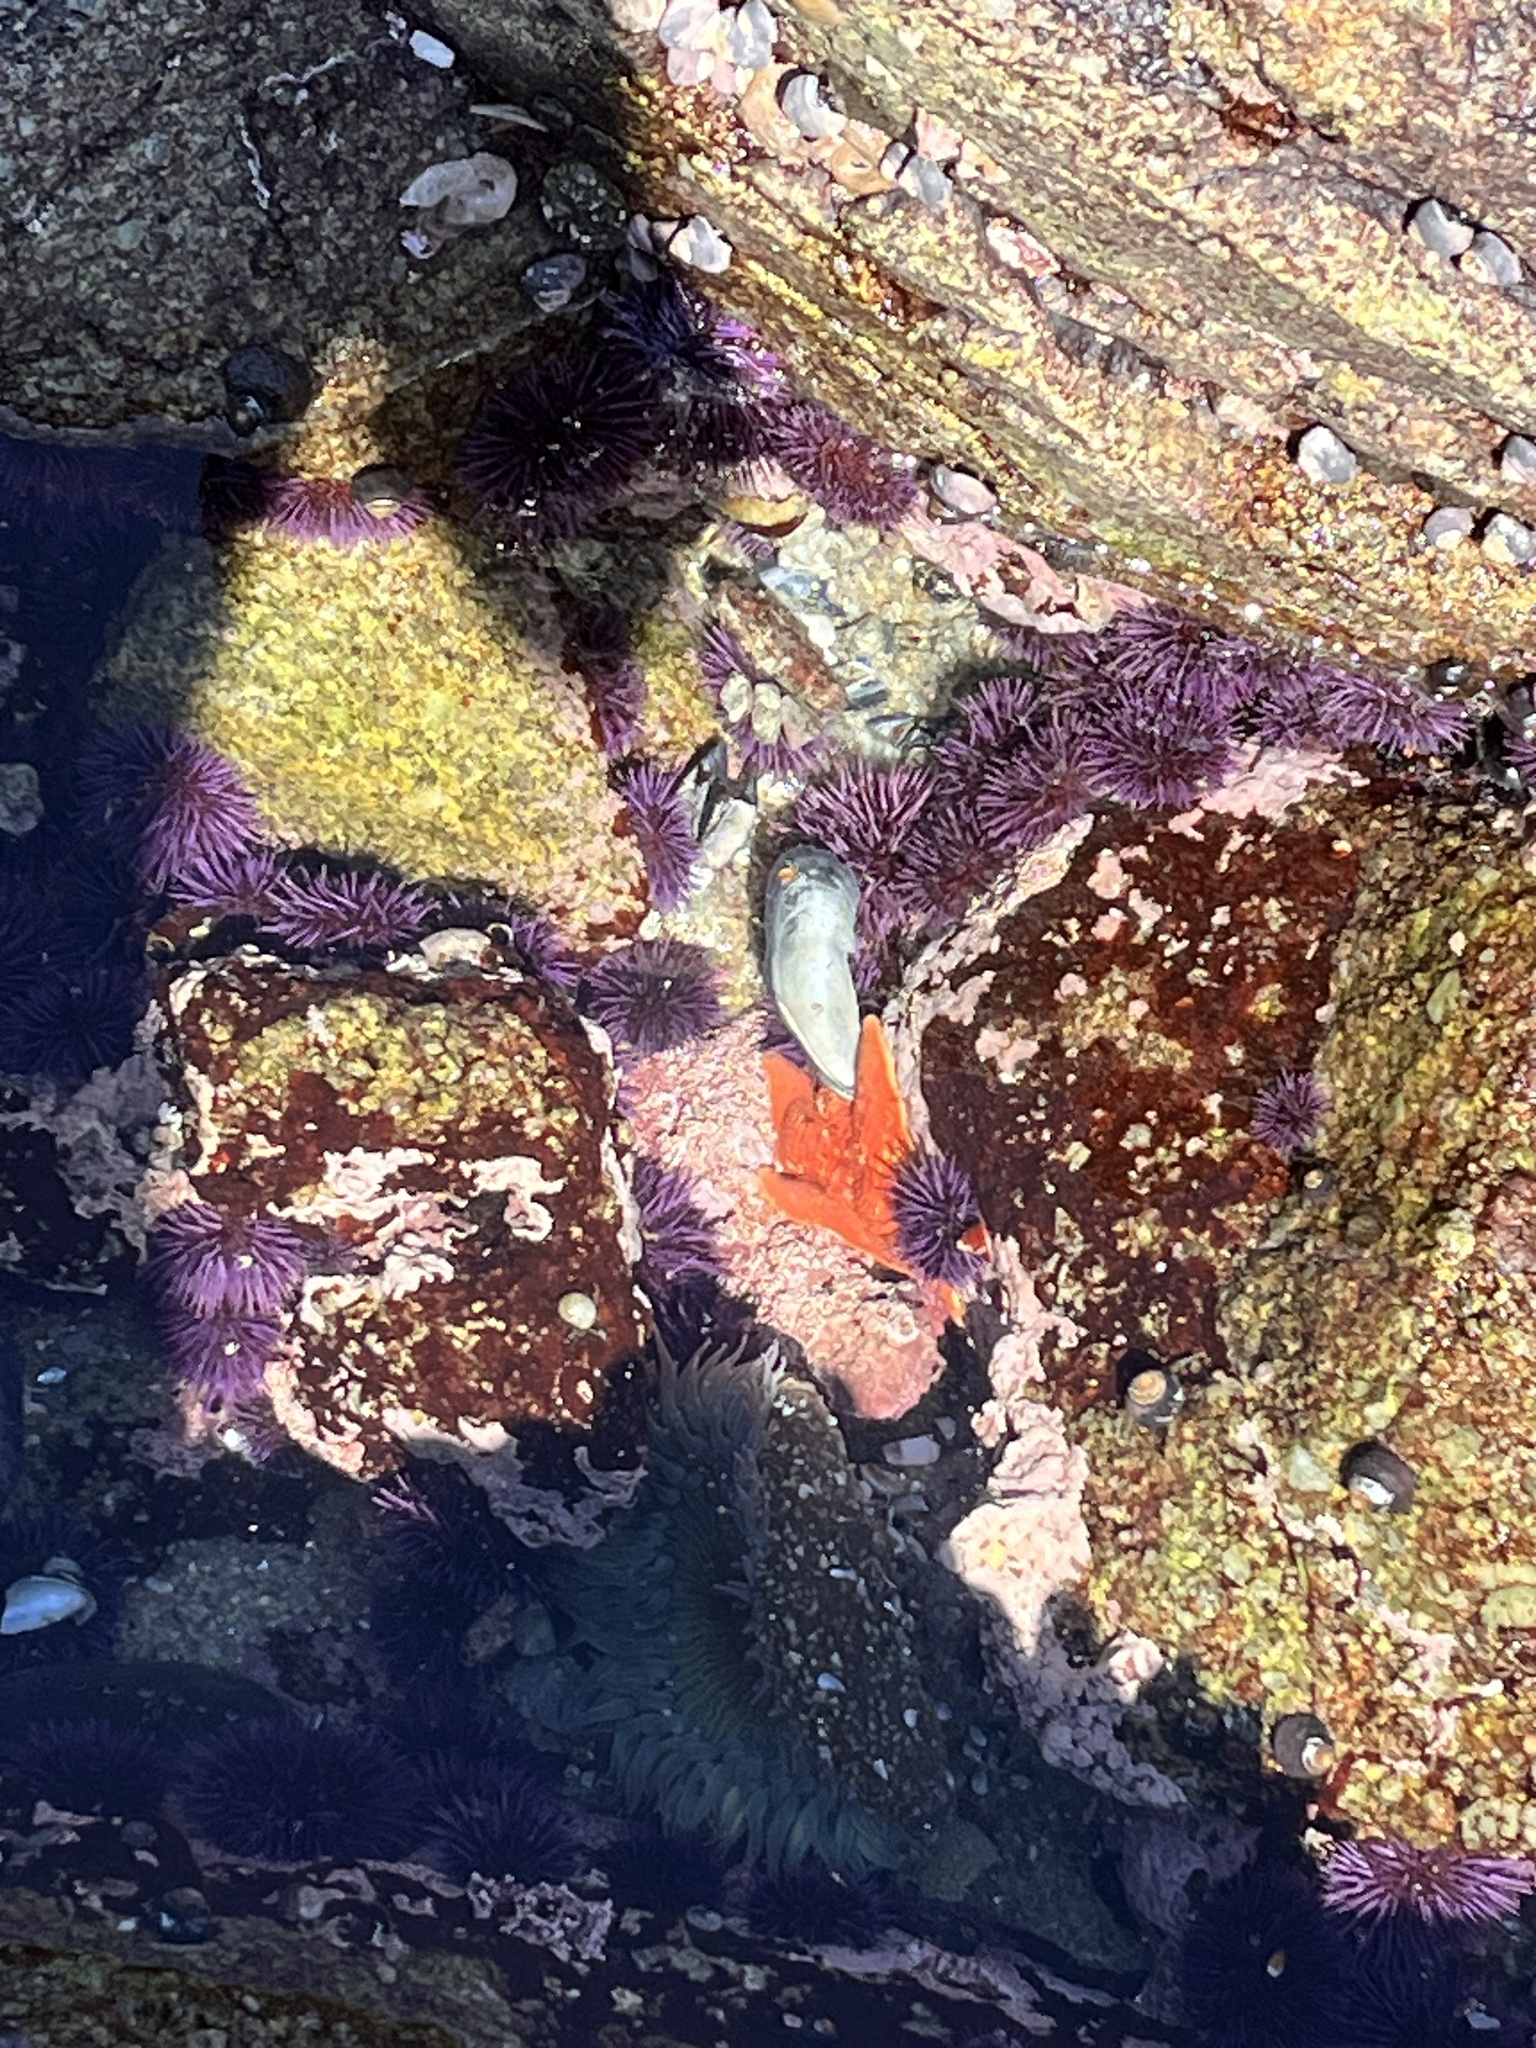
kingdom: Animalia
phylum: Echinodermata
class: Asteroidea
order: Valvatida
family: Asterinidae
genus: Patiria
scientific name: Patiria miniata
